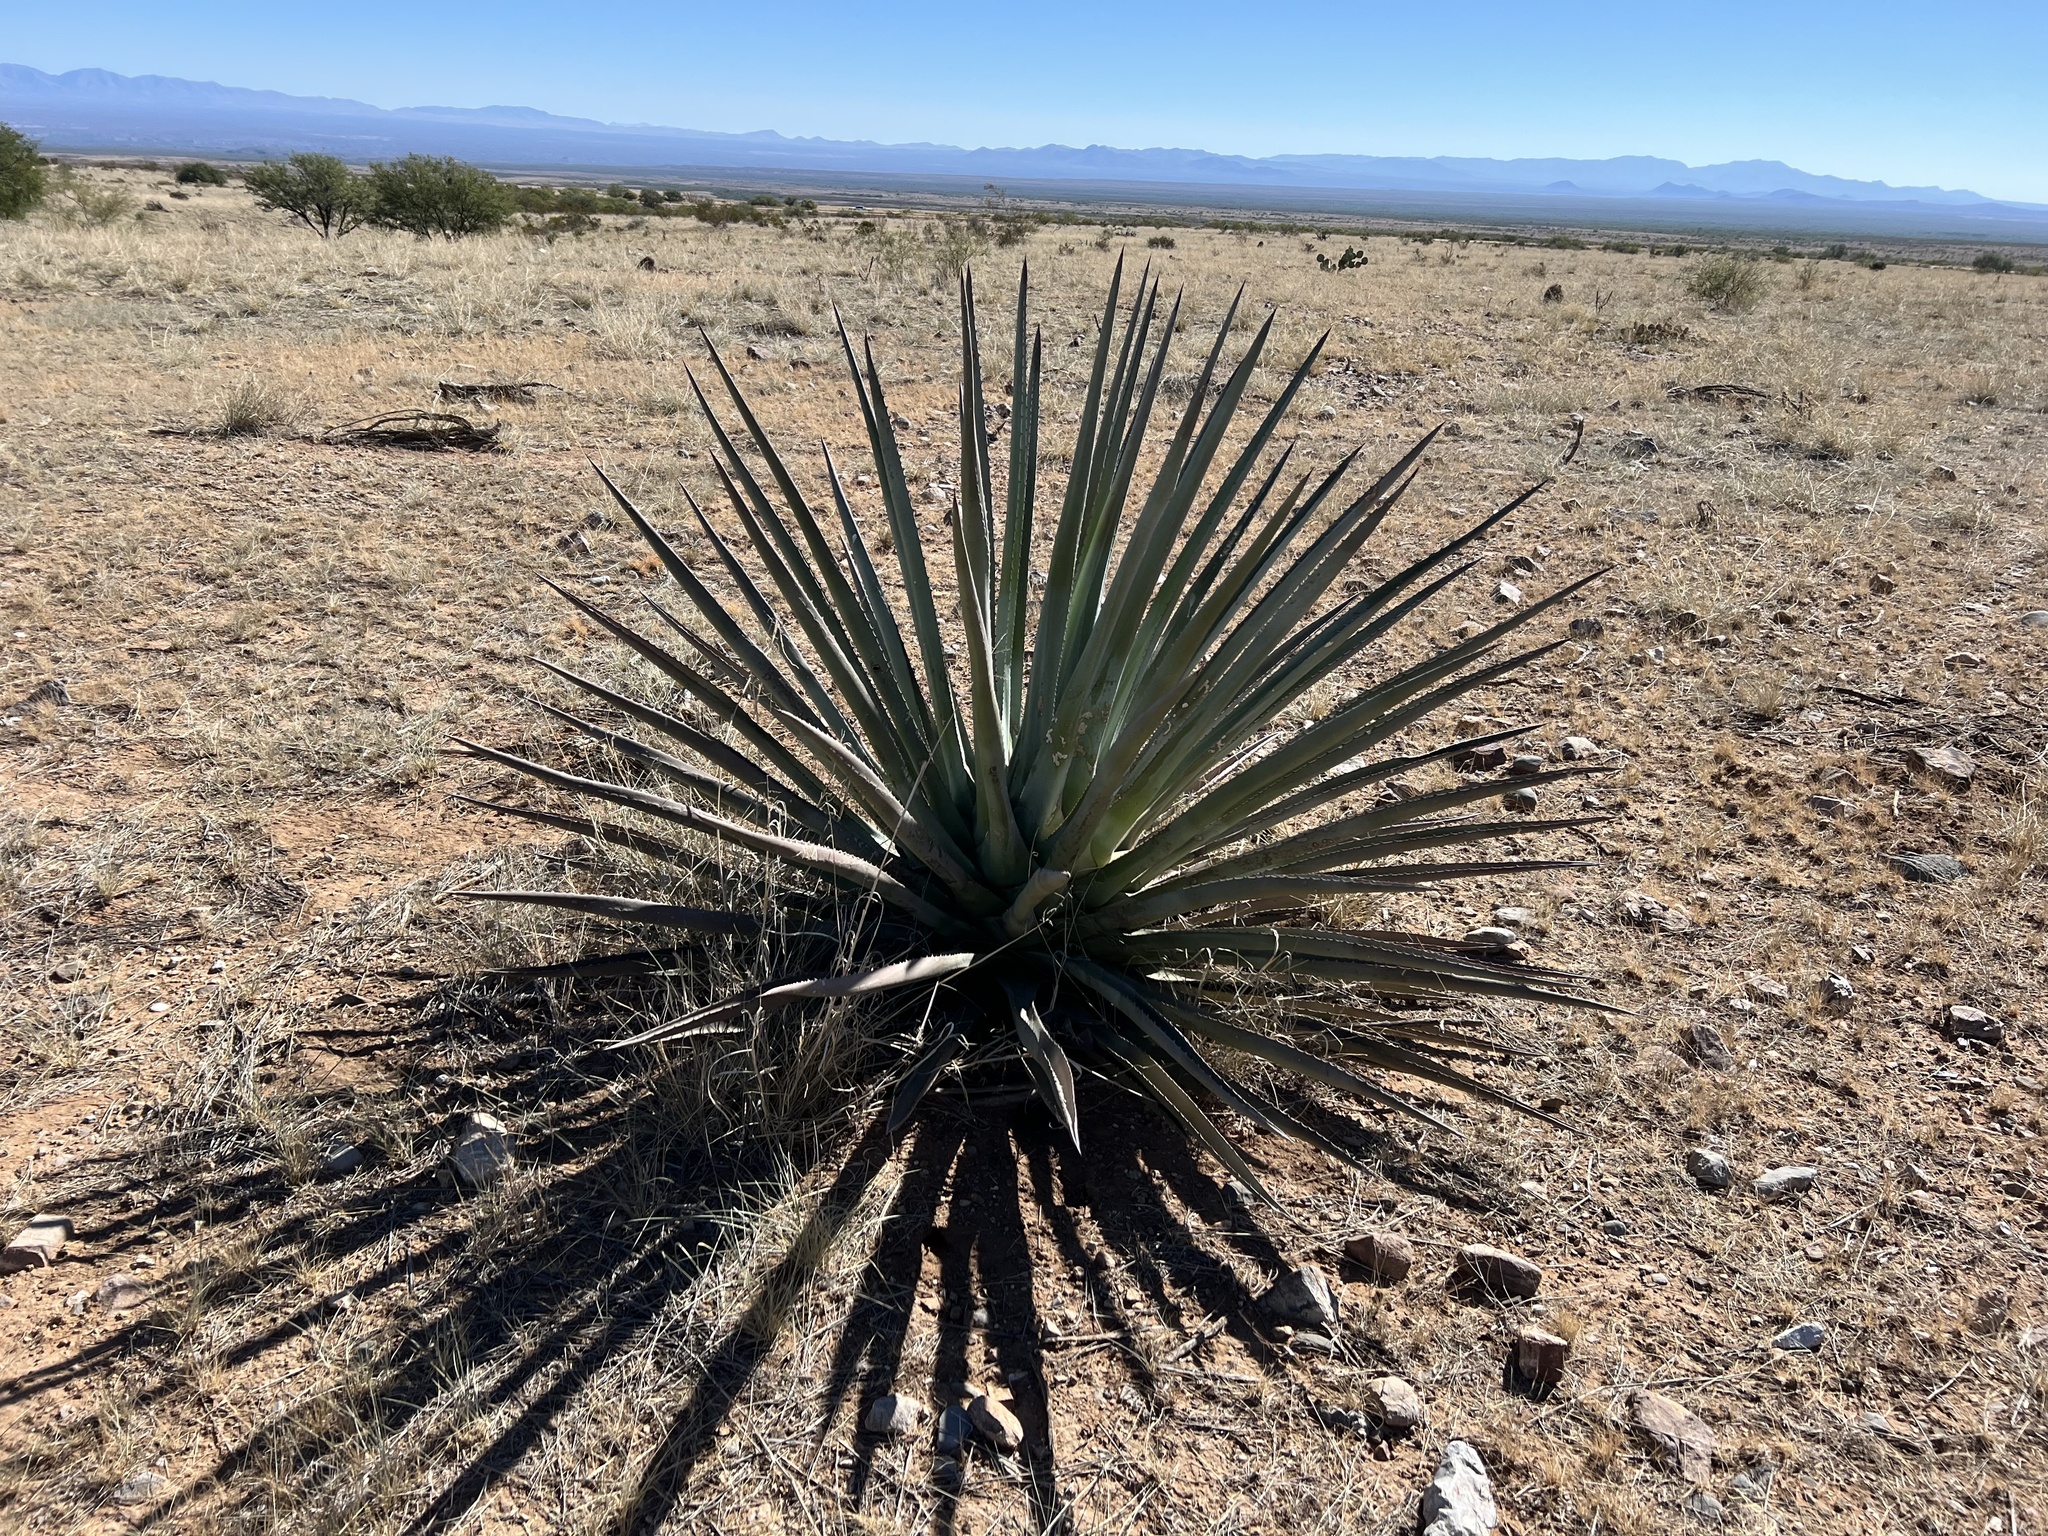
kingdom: Plantae
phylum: Tracheophyta
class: Liliopsida
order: Asparagales
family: Asparagaceae
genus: Agave
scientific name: Agave palmeri
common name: Palmer agave
